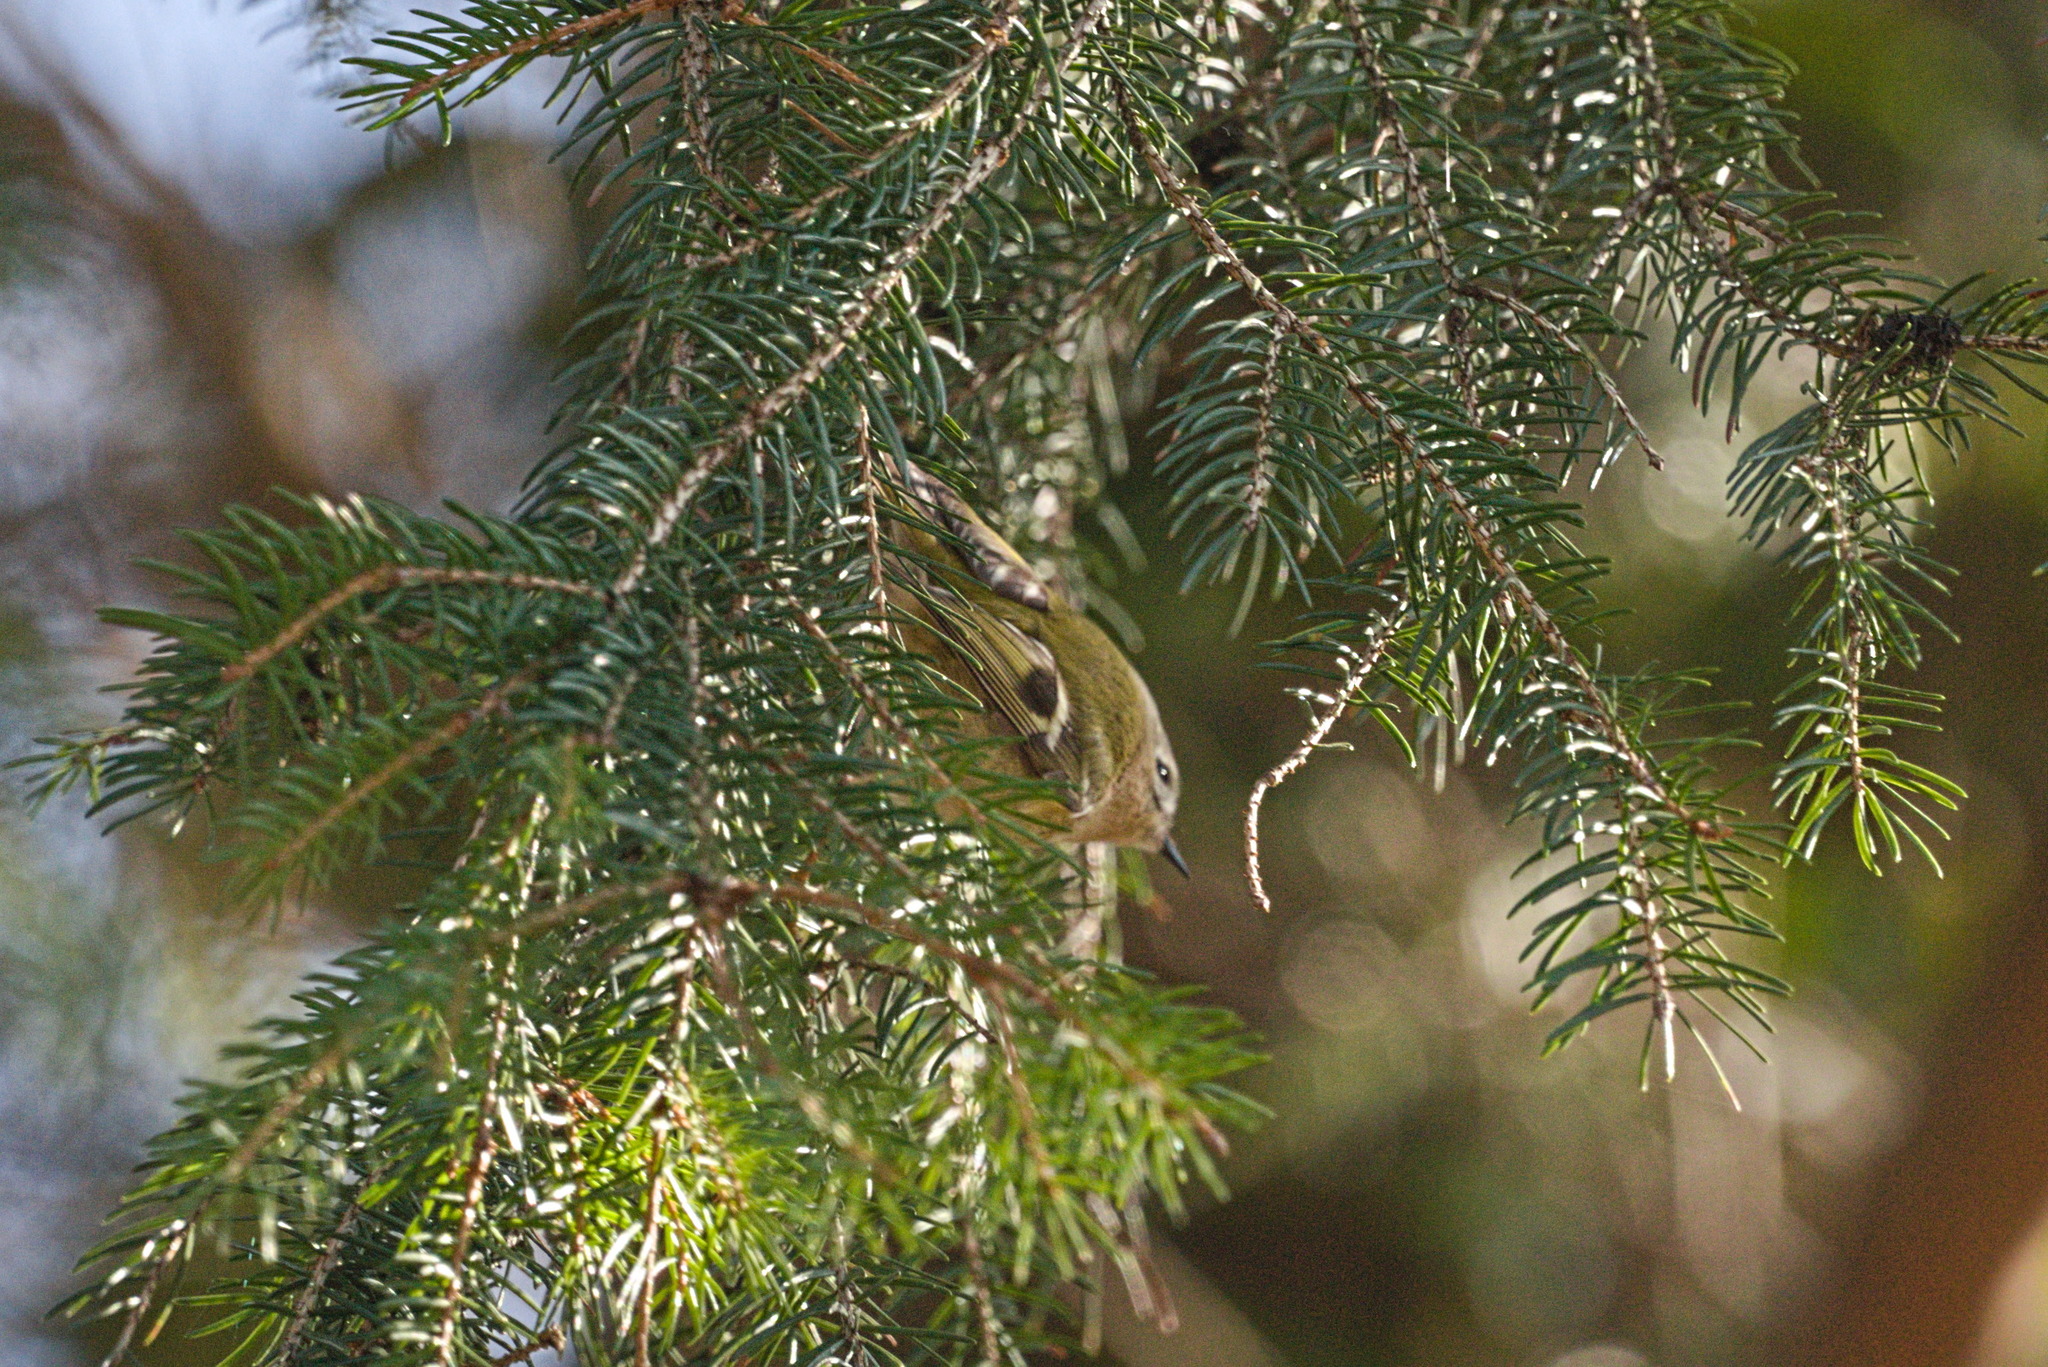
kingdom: Animalia
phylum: Chordata
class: Aves
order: Passeriformes
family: Regulidae
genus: Regulus
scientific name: Regulus regulus
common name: Goldcrest
